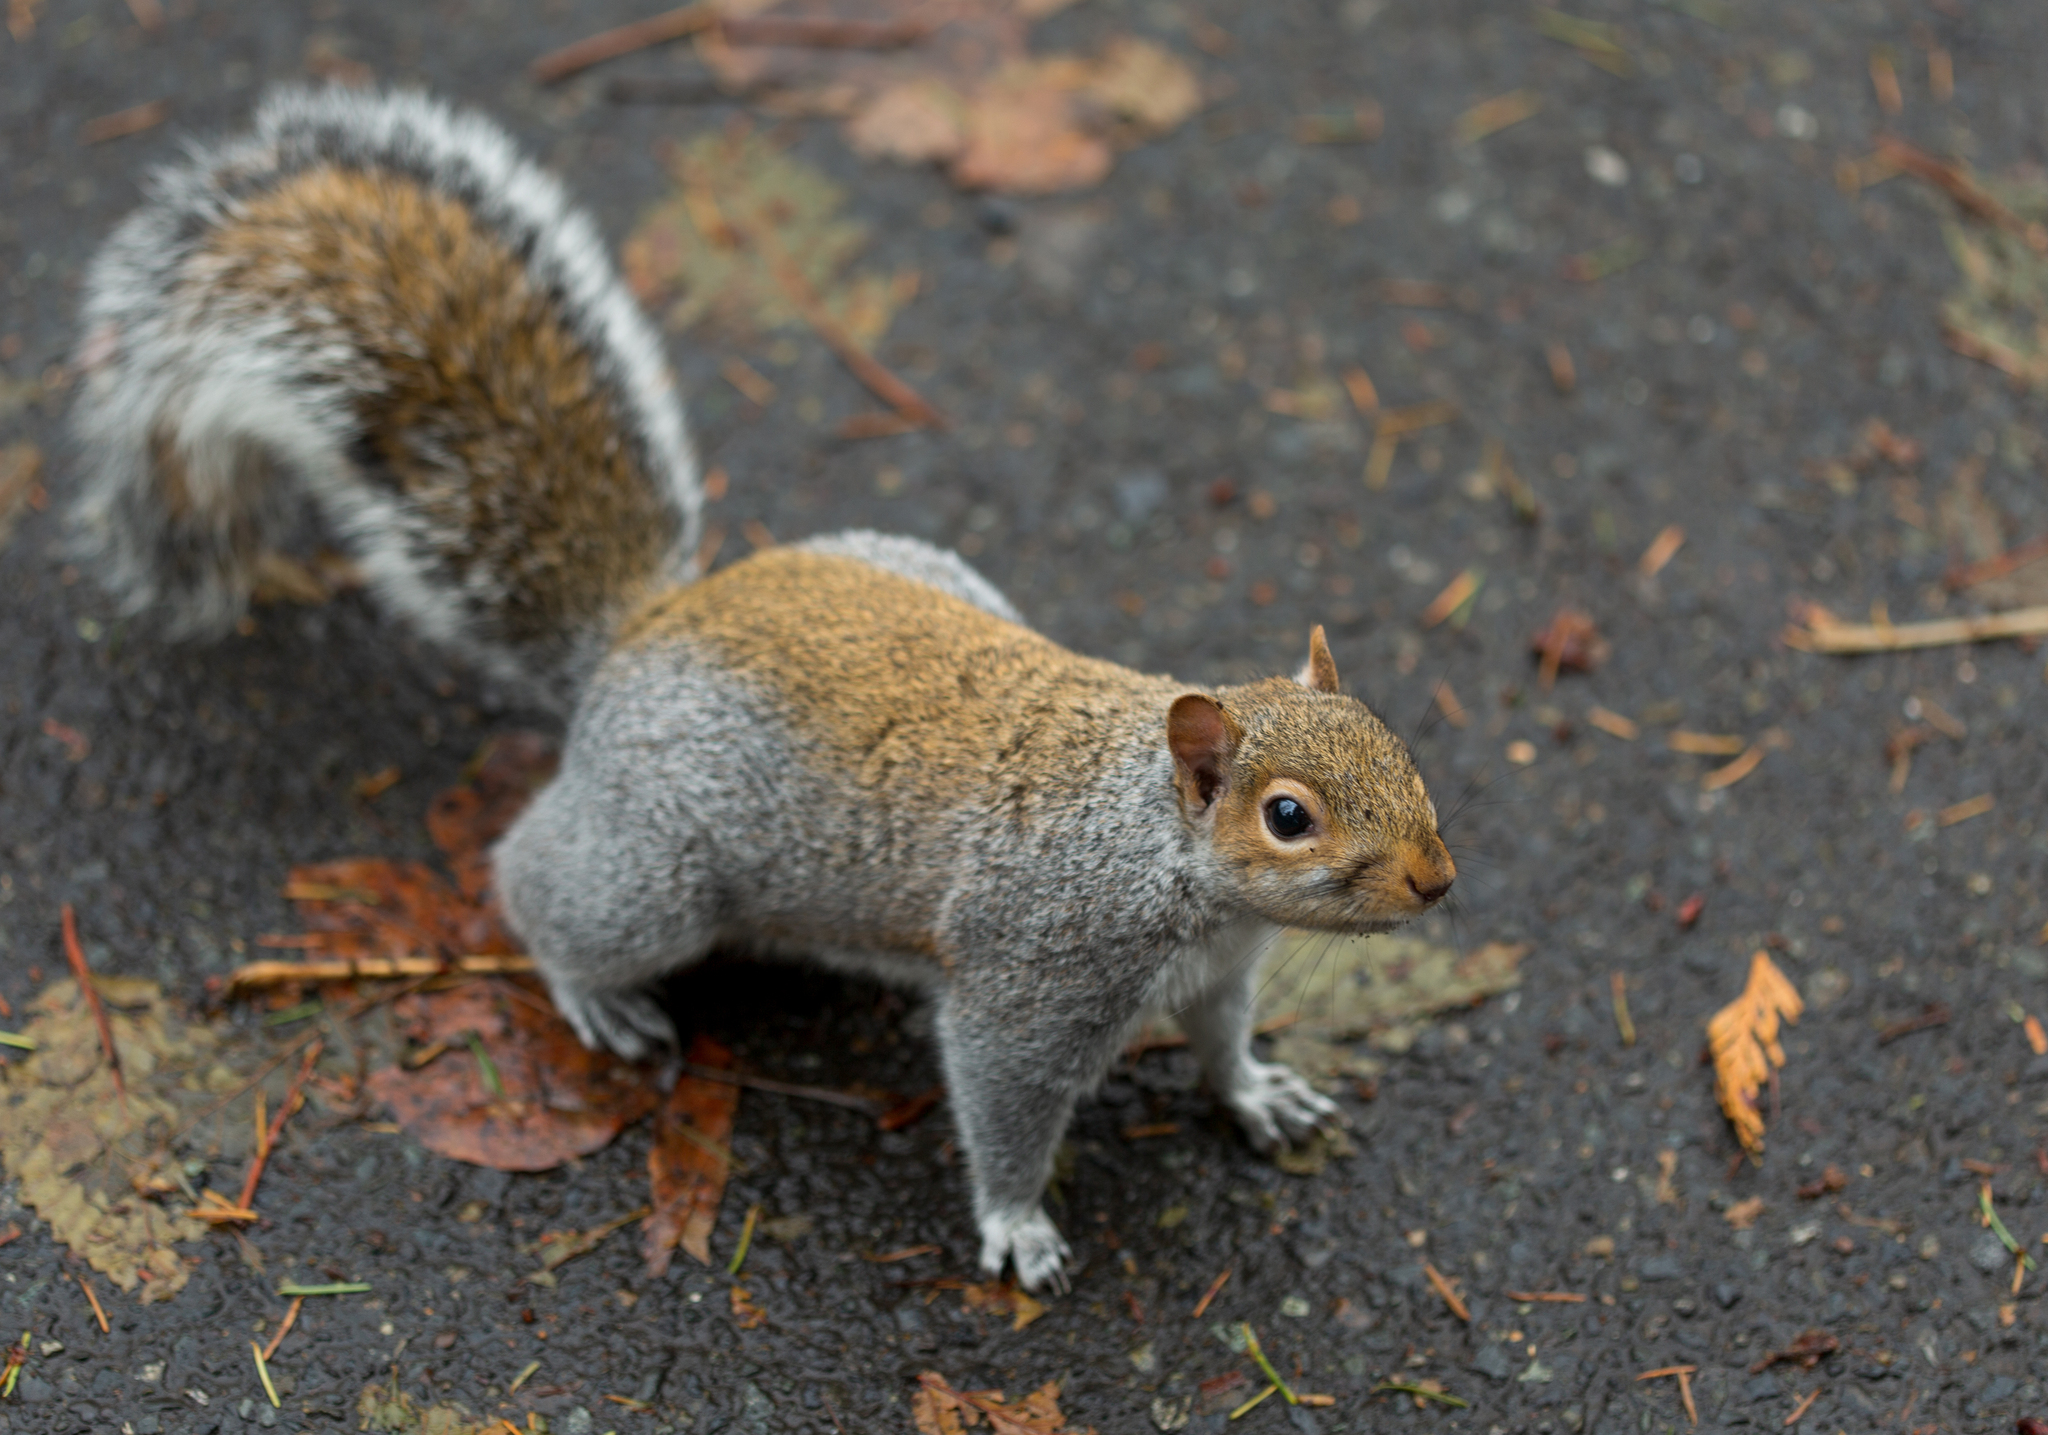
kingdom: Animalia
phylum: Chordata
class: Mammalia
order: Rodentia
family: Sciuridae
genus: Sciurus
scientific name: Sciurus carolinensis
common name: Eastern gray squirrel
